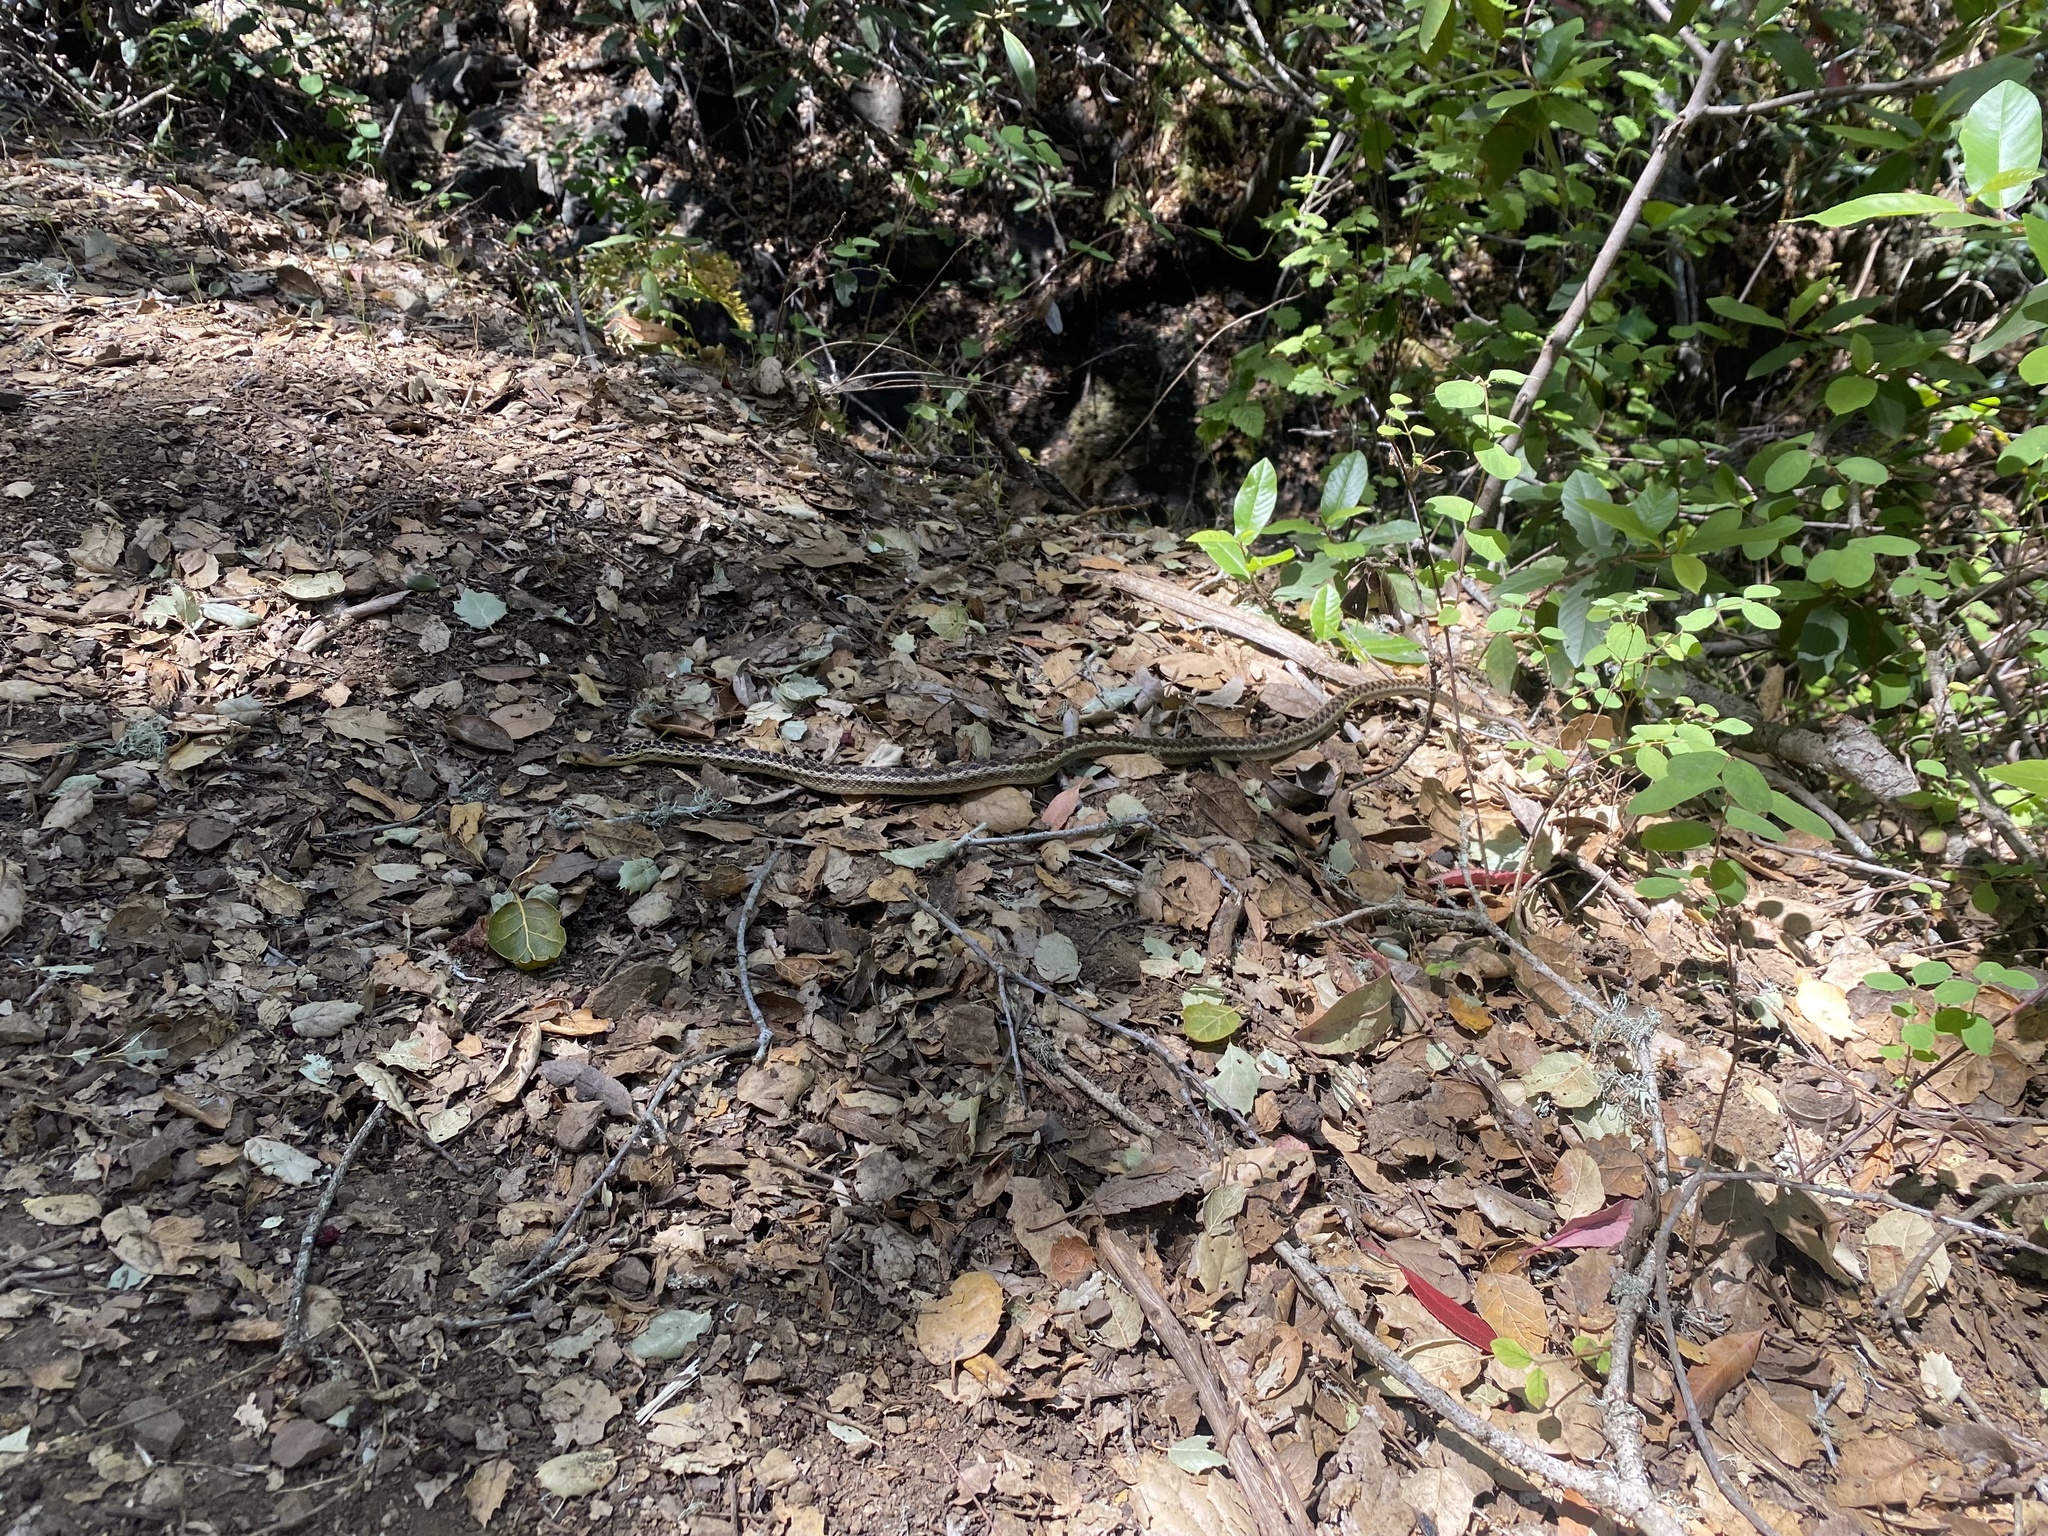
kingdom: Animalia
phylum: Chordata
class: Squamata
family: Colubridae
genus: Pituophis
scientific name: Pituophis catenifer
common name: Gopher snake
